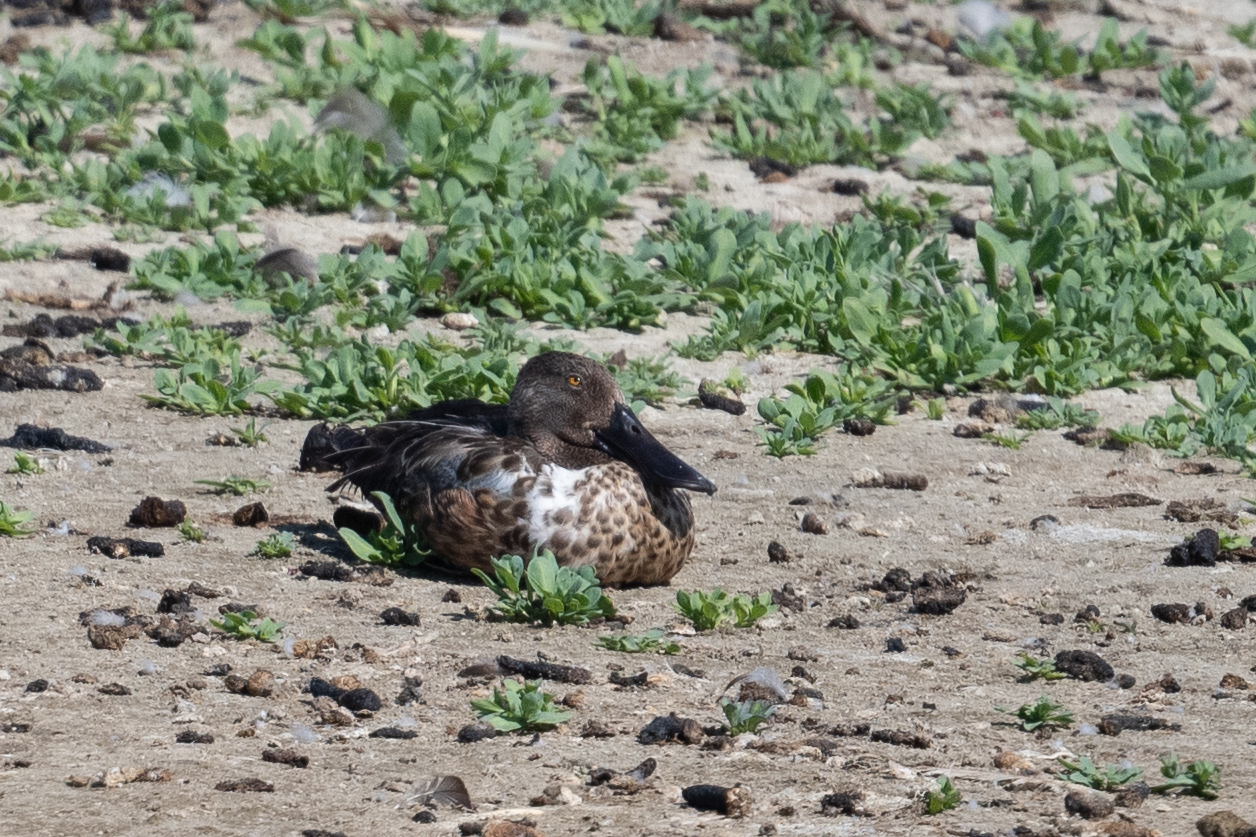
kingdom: Animalia
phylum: Chordata
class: Aves
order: Anseriformes
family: Anatidae
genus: Spatula
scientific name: Spatula clypeata
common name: Northern shoveler
